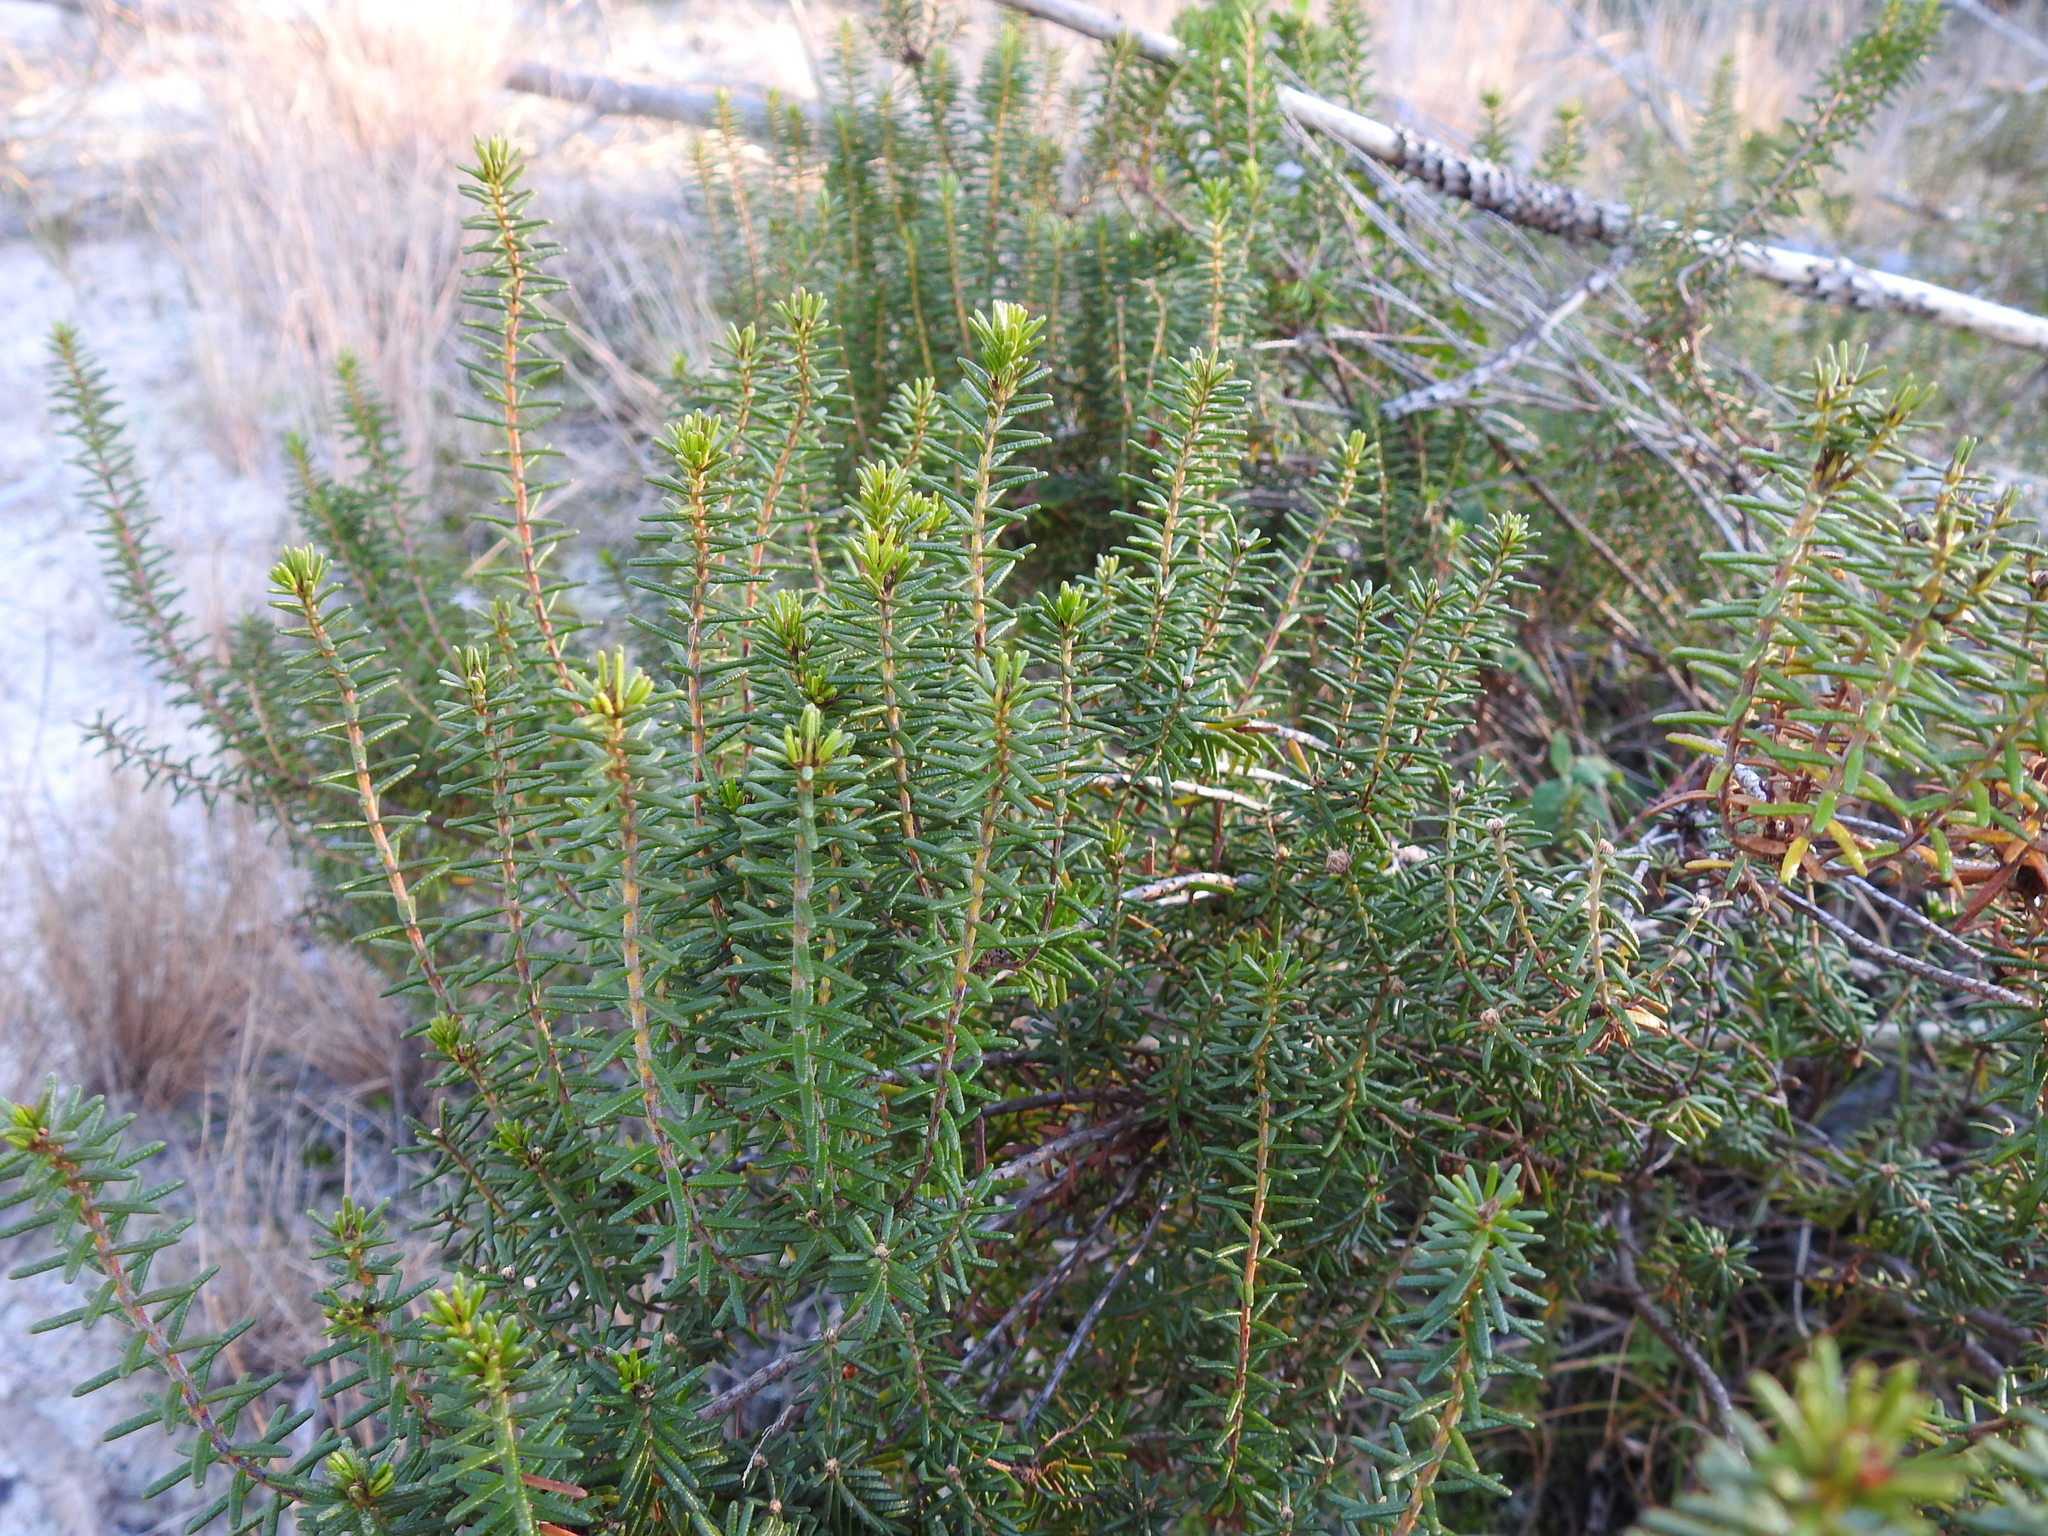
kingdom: Plantae
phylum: Tracheophyta
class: Magnoliopsida
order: Ericales
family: Ericaceae
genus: Corema
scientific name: Corema album
